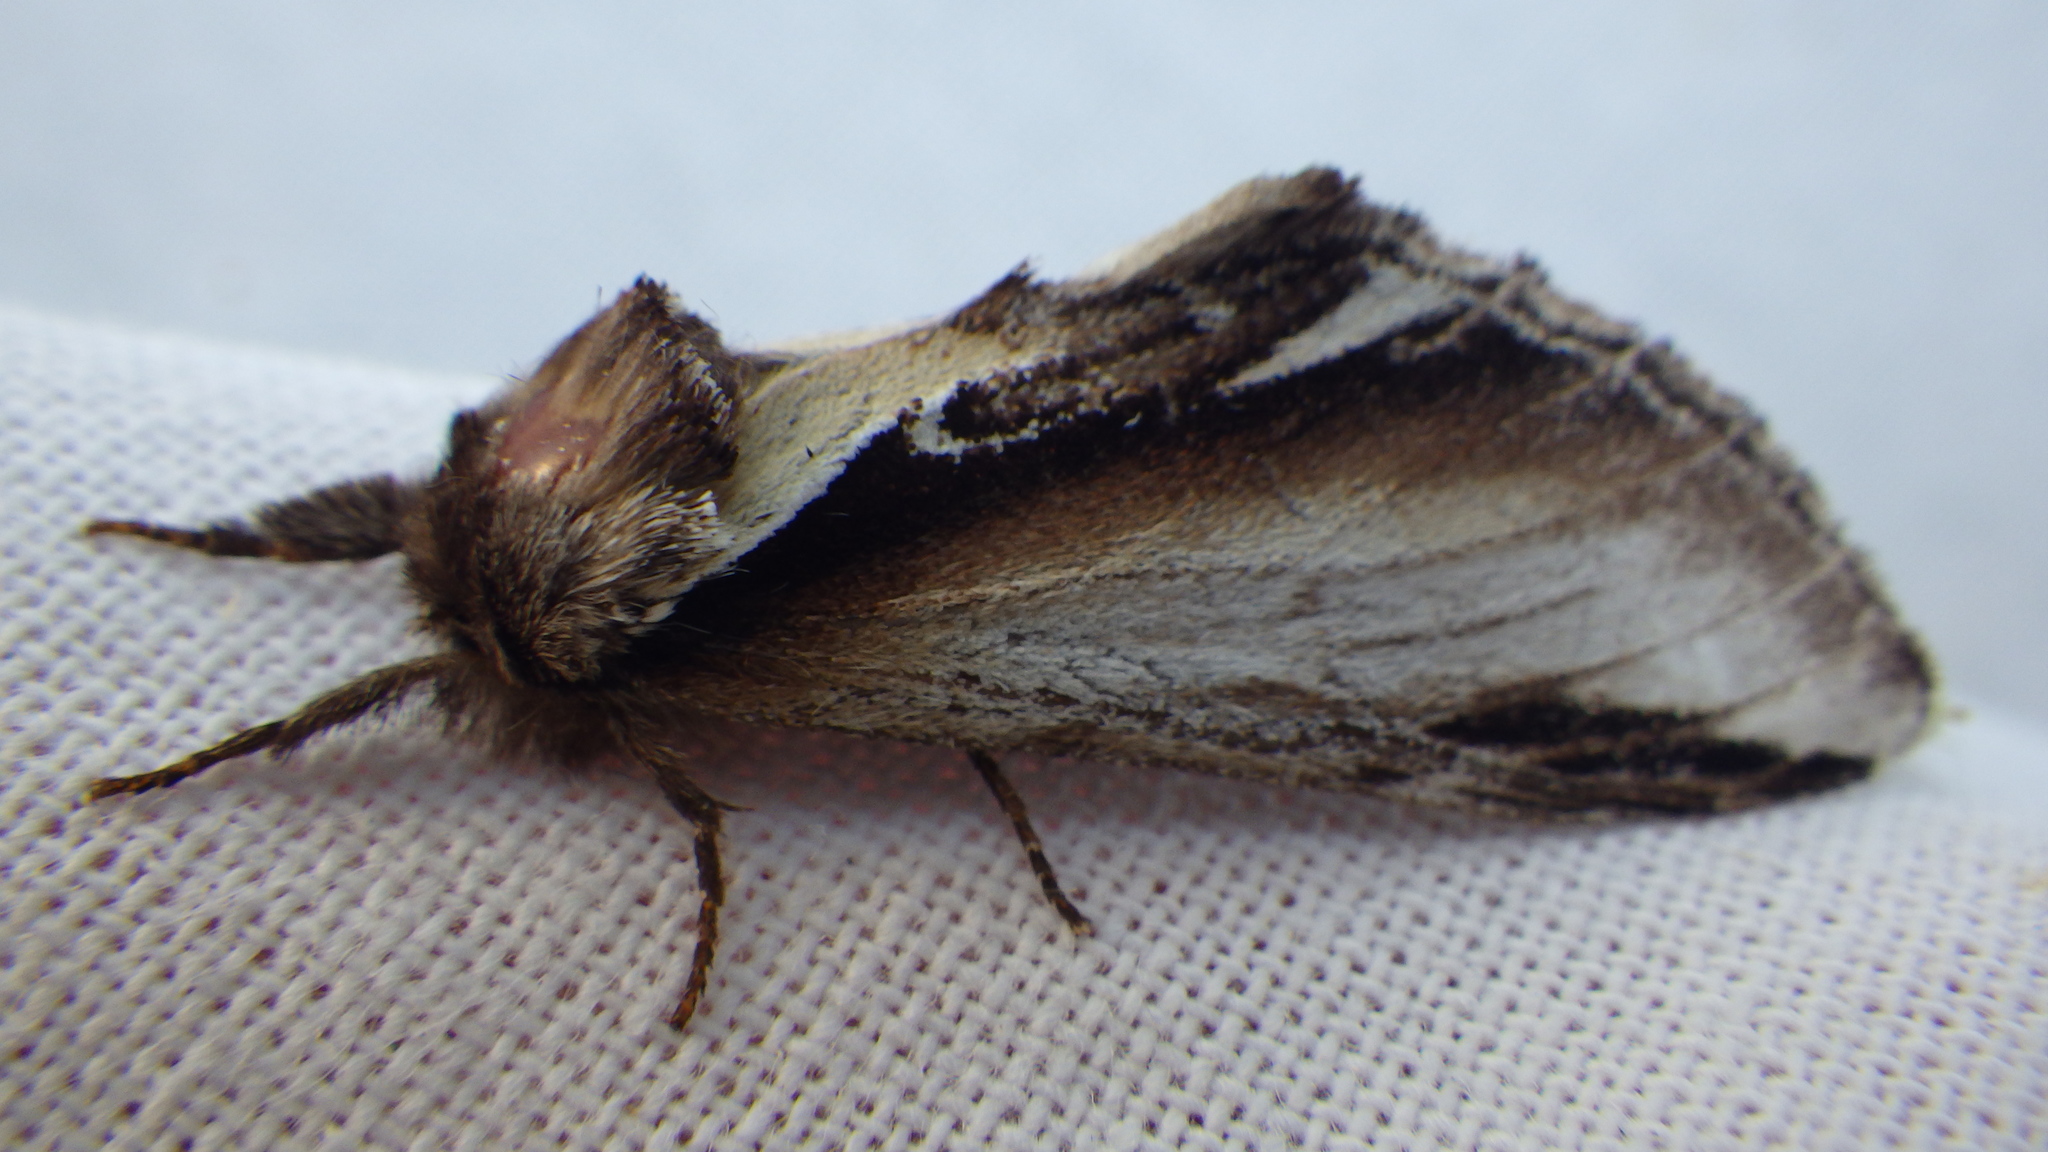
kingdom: Animalia
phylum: Arthropoda
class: Insecta
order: Lepidoptera
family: Notodontidae
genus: Pheosia
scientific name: Pheosia gnoma
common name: Lesser swallow prominent
